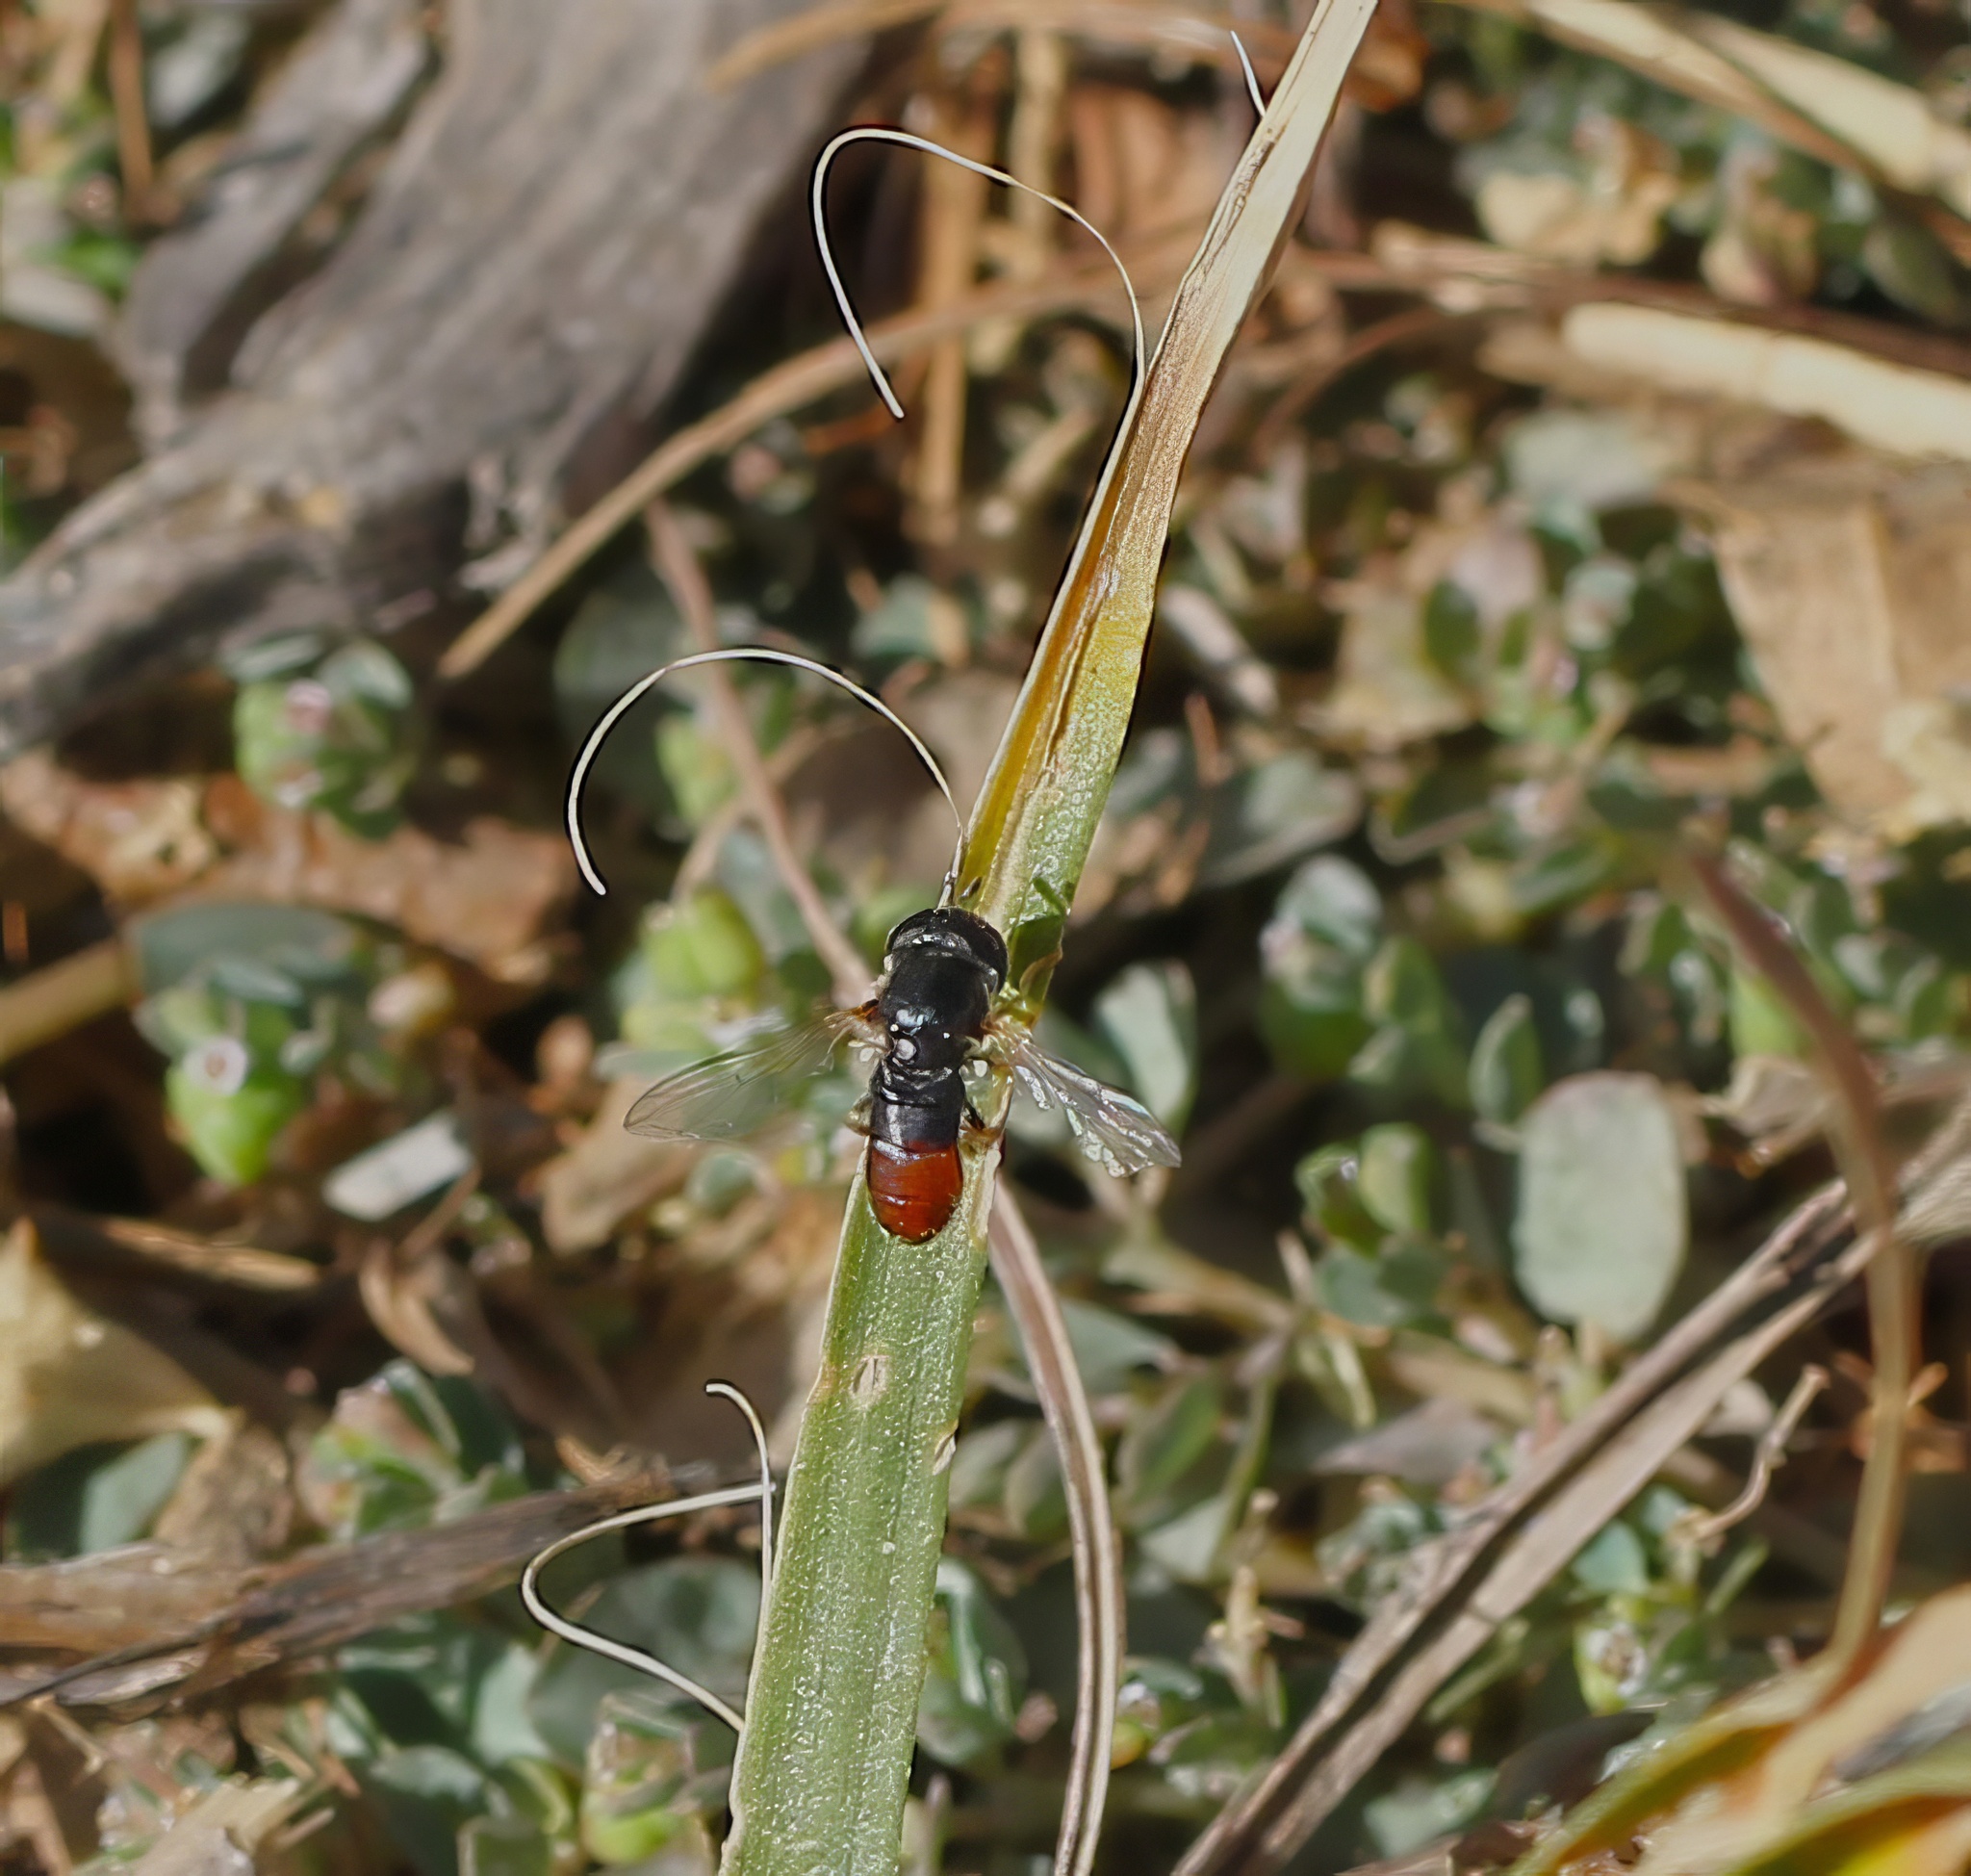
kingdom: Animalia
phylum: Arthropoda
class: Insecta
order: Diptera
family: Syrphidae
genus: Paragus
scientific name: Paragus haemorrhous
